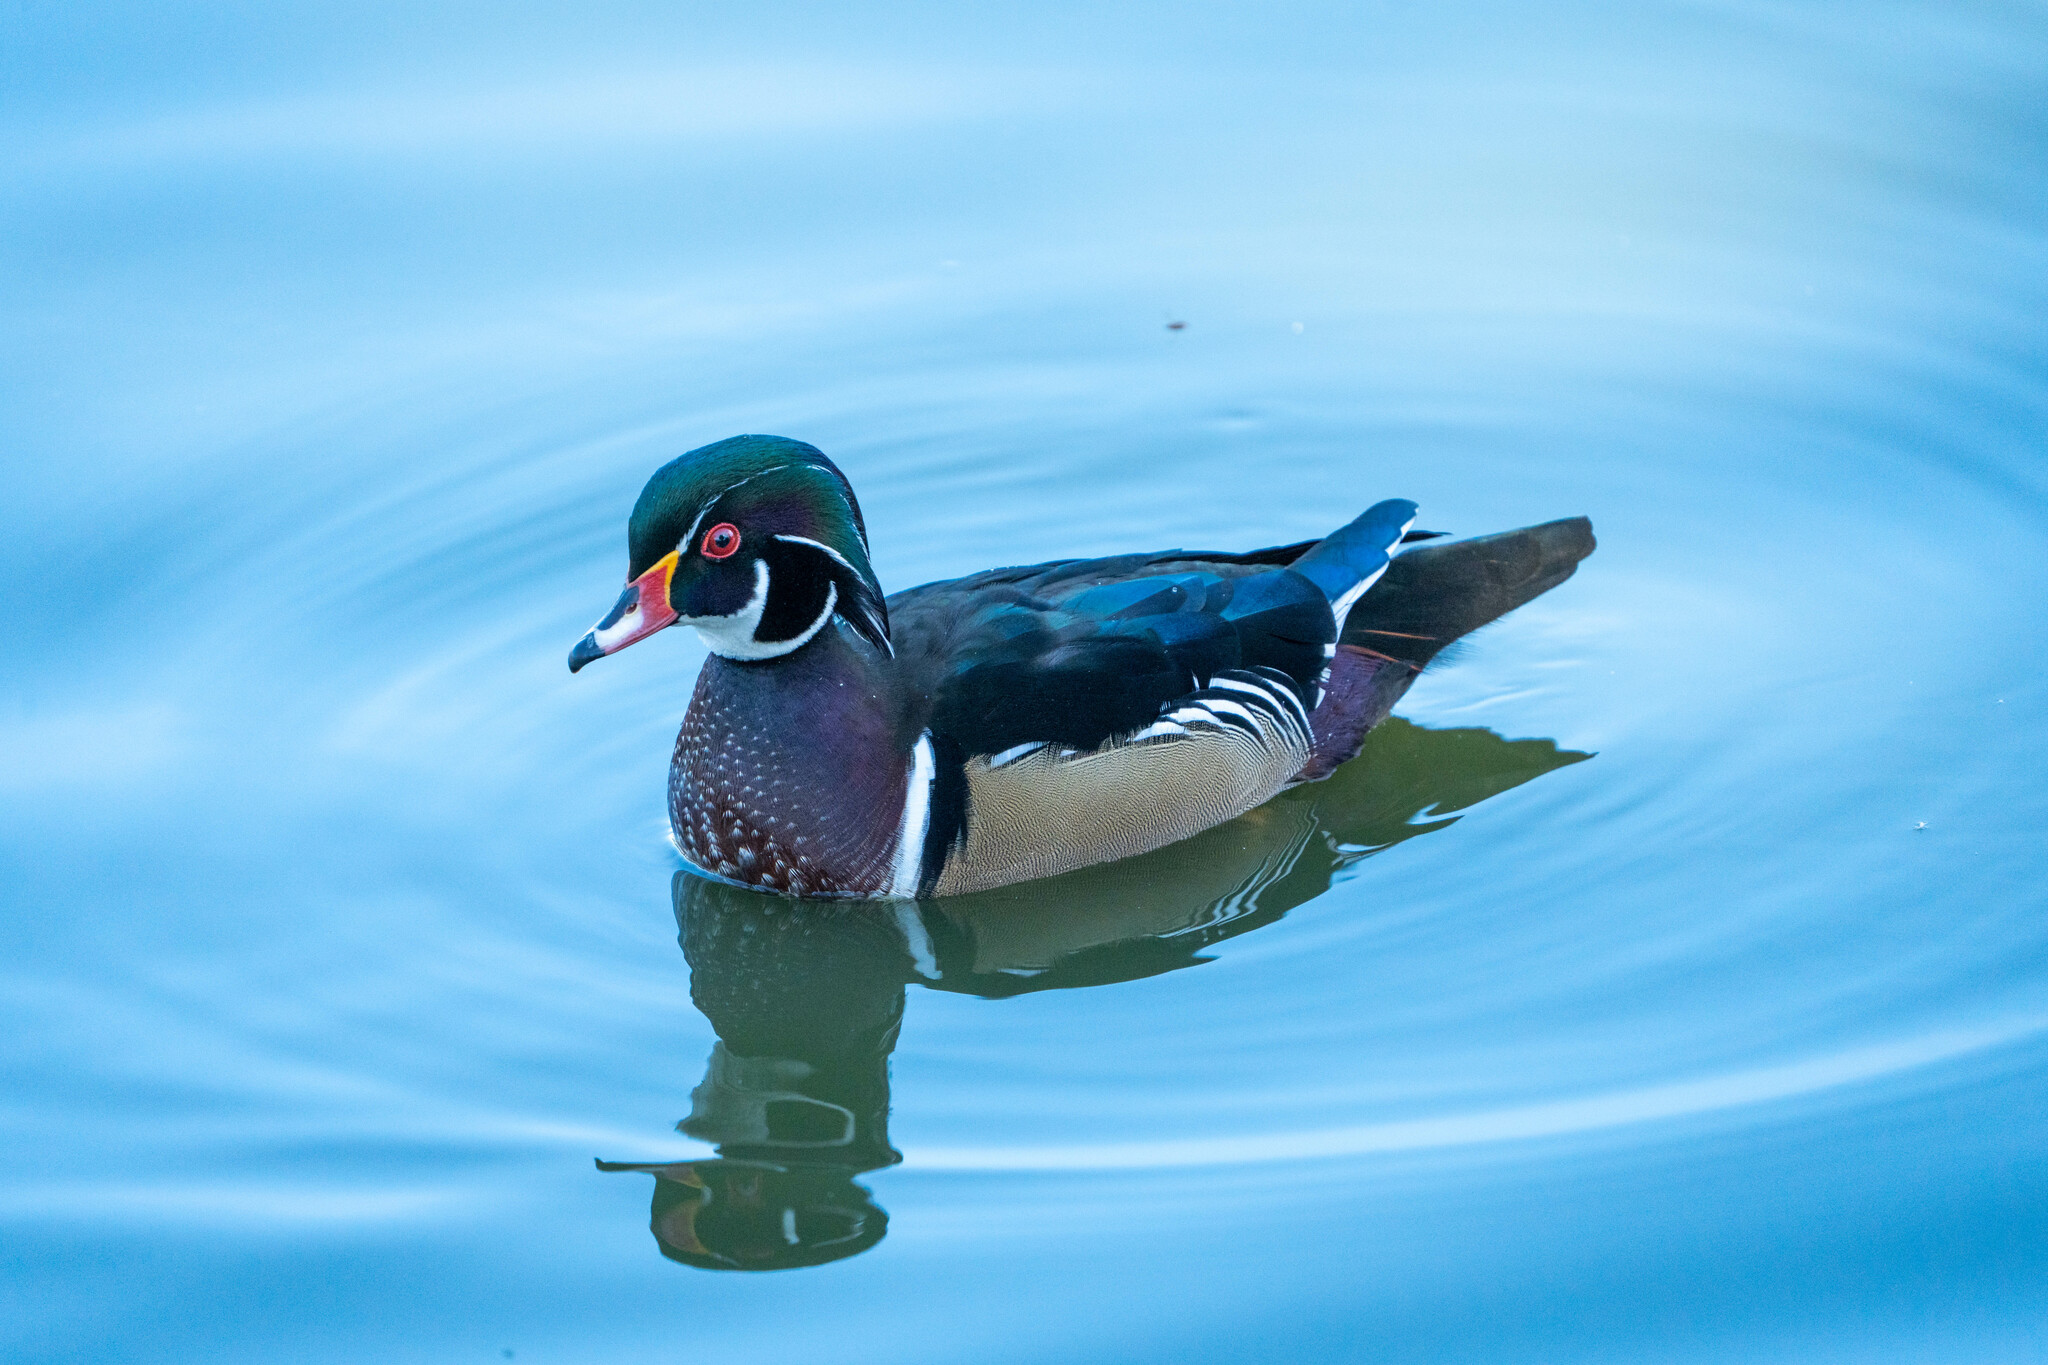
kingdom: Animalia
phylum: Chordata
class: Aves
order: Anseriformes
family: Anatidae
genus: Aix
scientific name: Aix sponsa
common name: Wood duck
